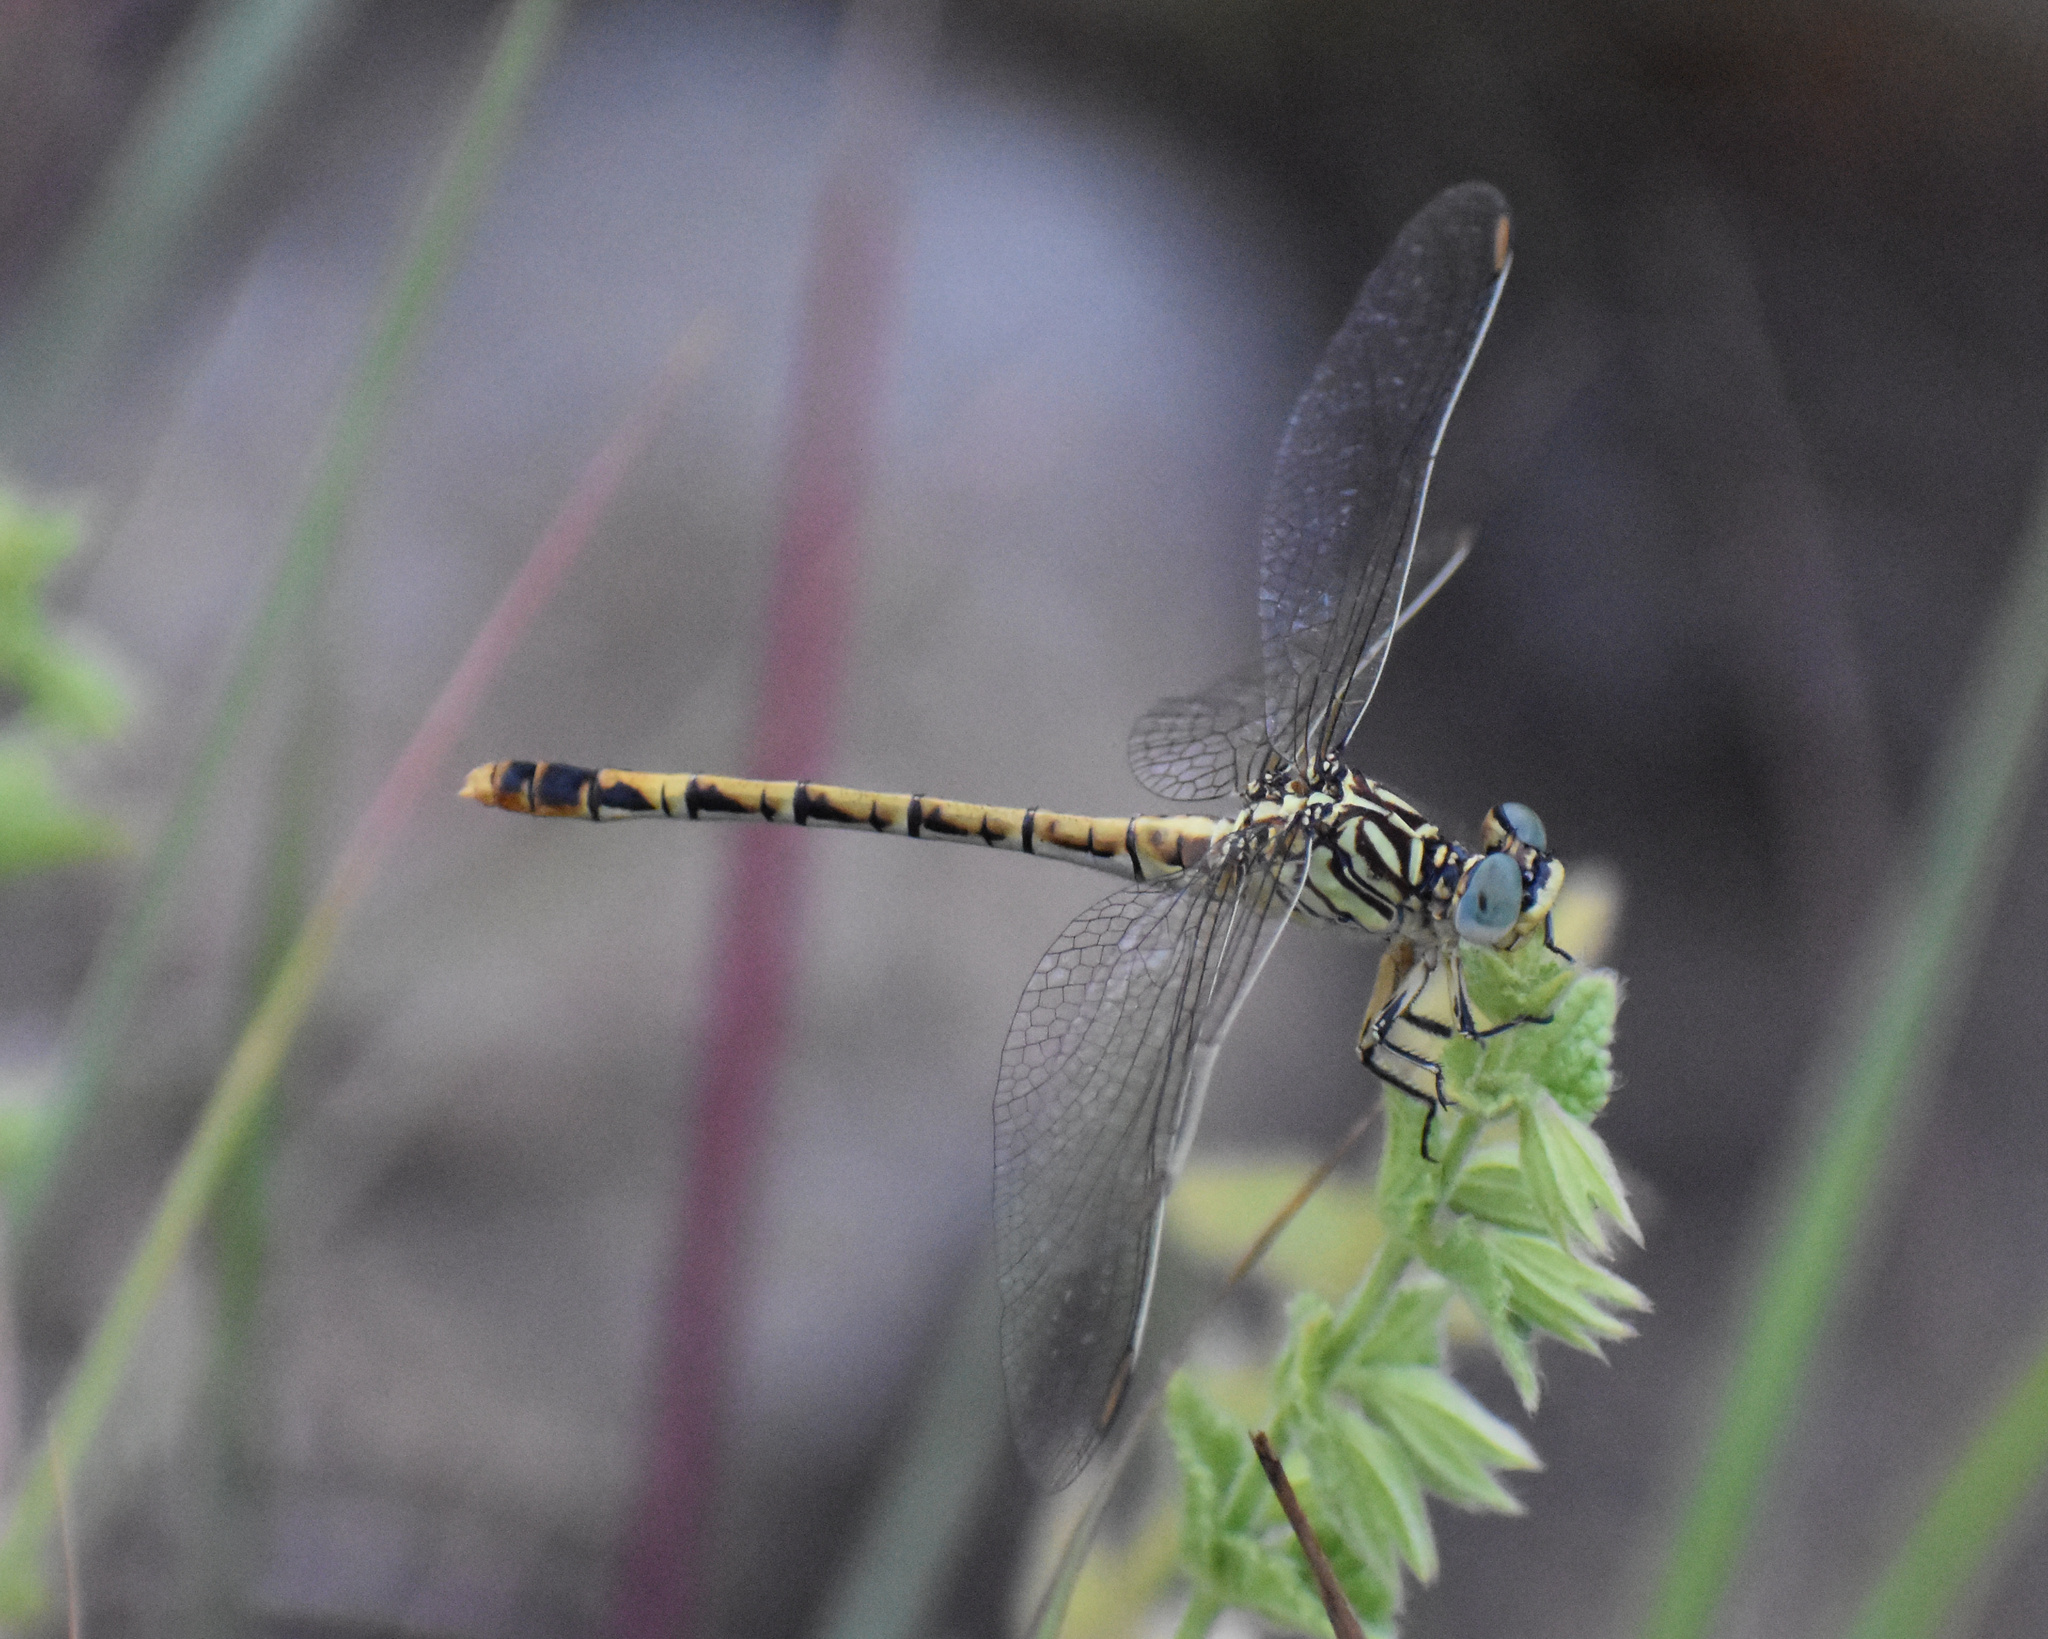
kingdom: Animalia
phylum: Arthropoda
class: Insecta
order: Odonata
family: Gomphidae
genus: Onychogomphus
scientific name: Onychogomphus supinus
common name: Gorge claspertail
